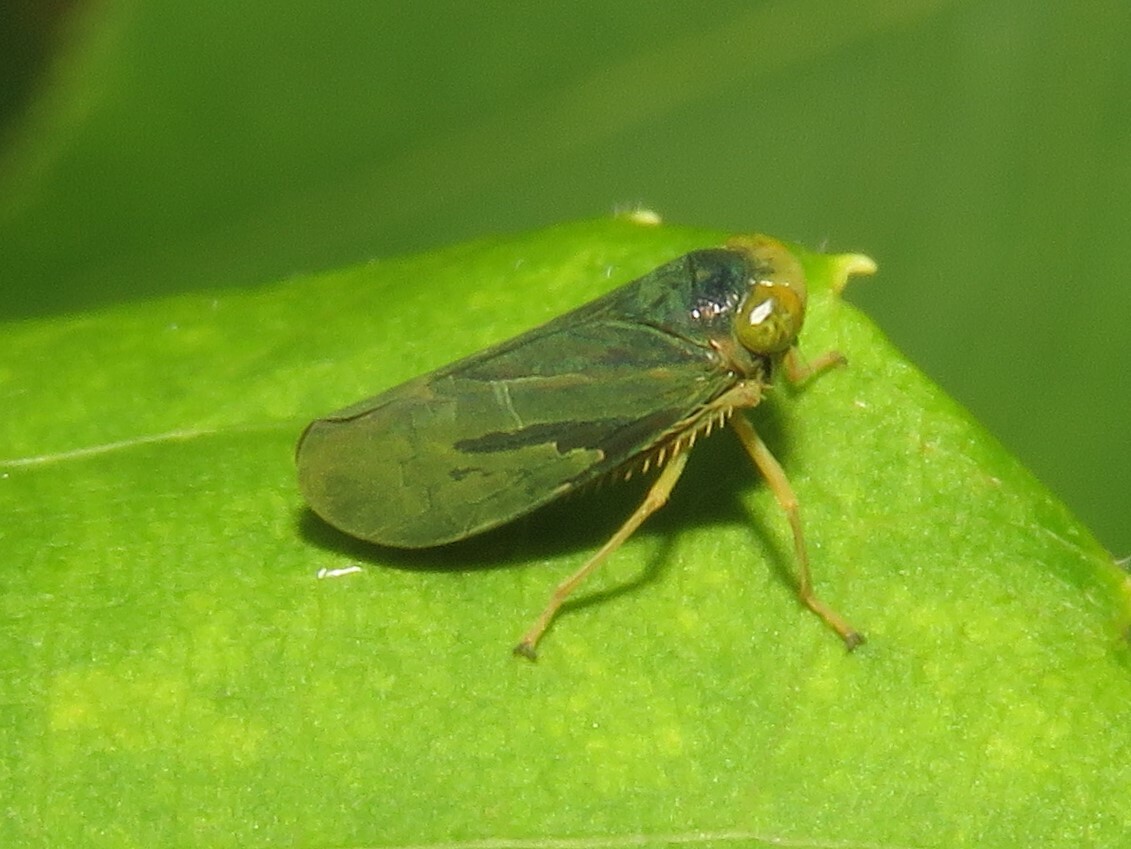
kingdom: Animalia
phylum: Arthropoda
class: Insecta
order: Hemiptera
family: Cicadellidae
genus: Jikradia
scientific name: Jikradia olitoria
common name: Coppery leafhopper
